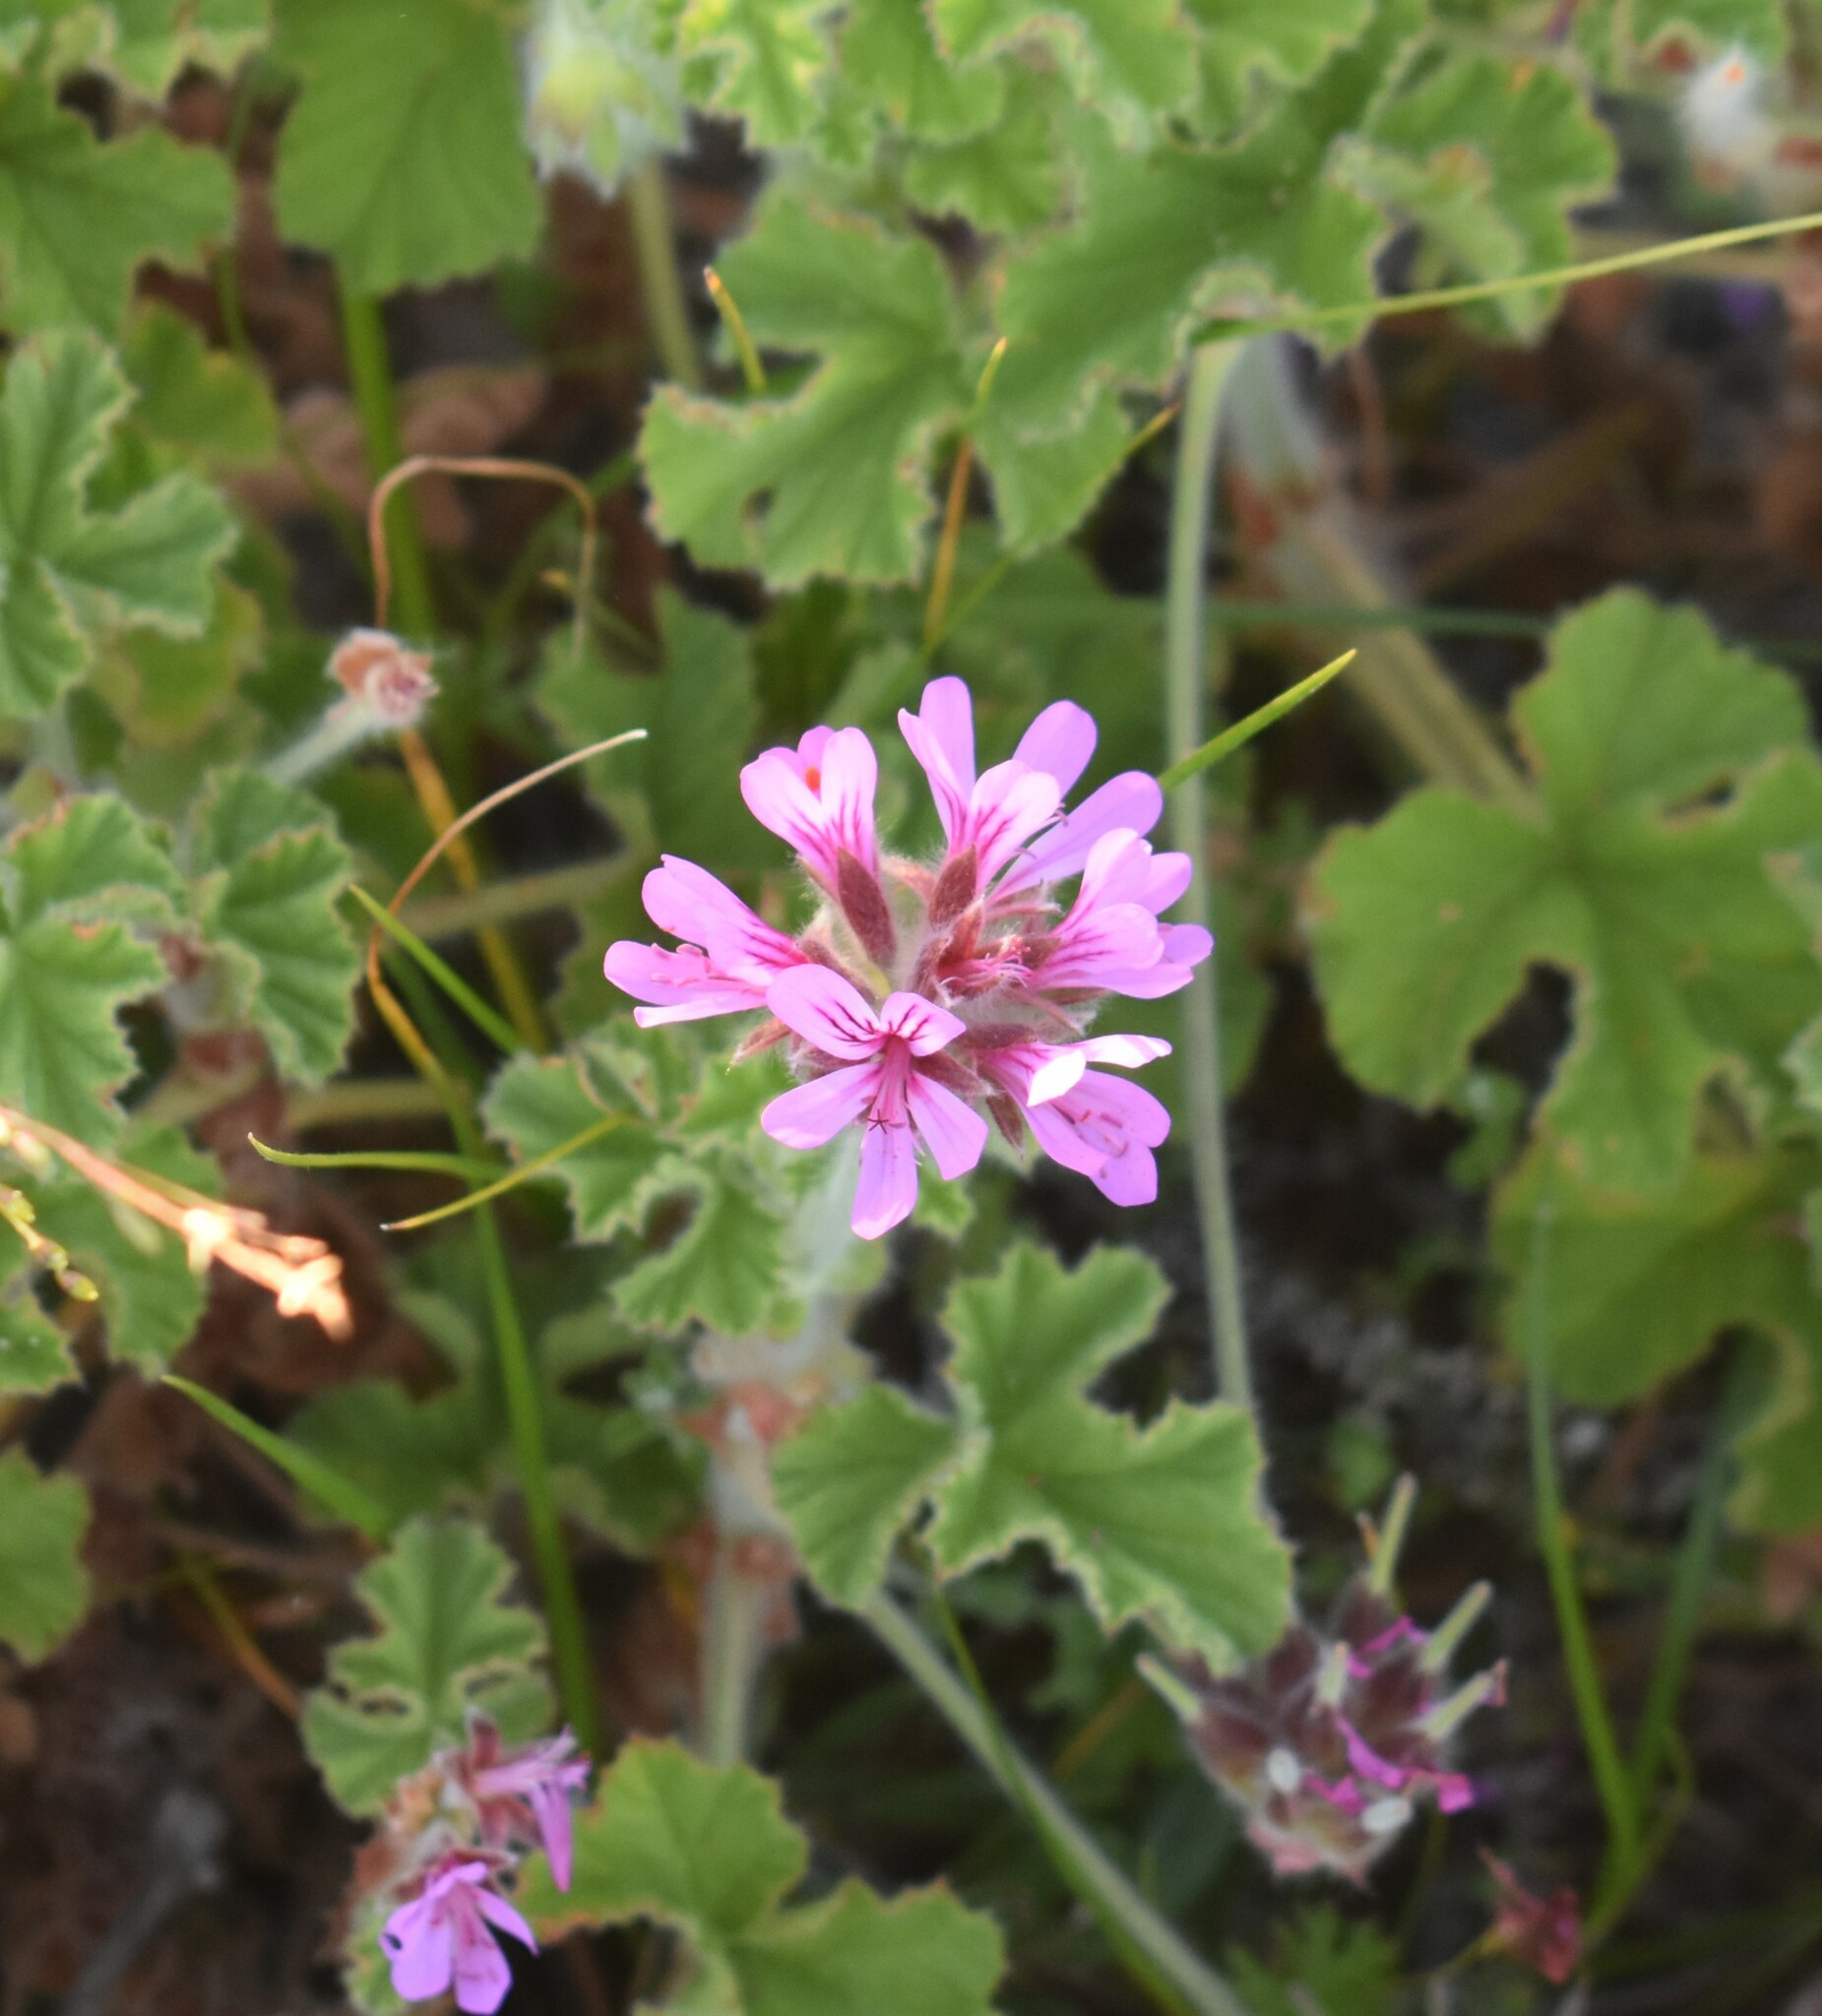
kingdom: Plantae
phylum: Tracheophyta
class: Magnoliopsida
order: Geraniales
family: Geraniaceae
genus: Pelargonium
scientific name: Pelargonium capitatum
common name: Rose scented geranium
